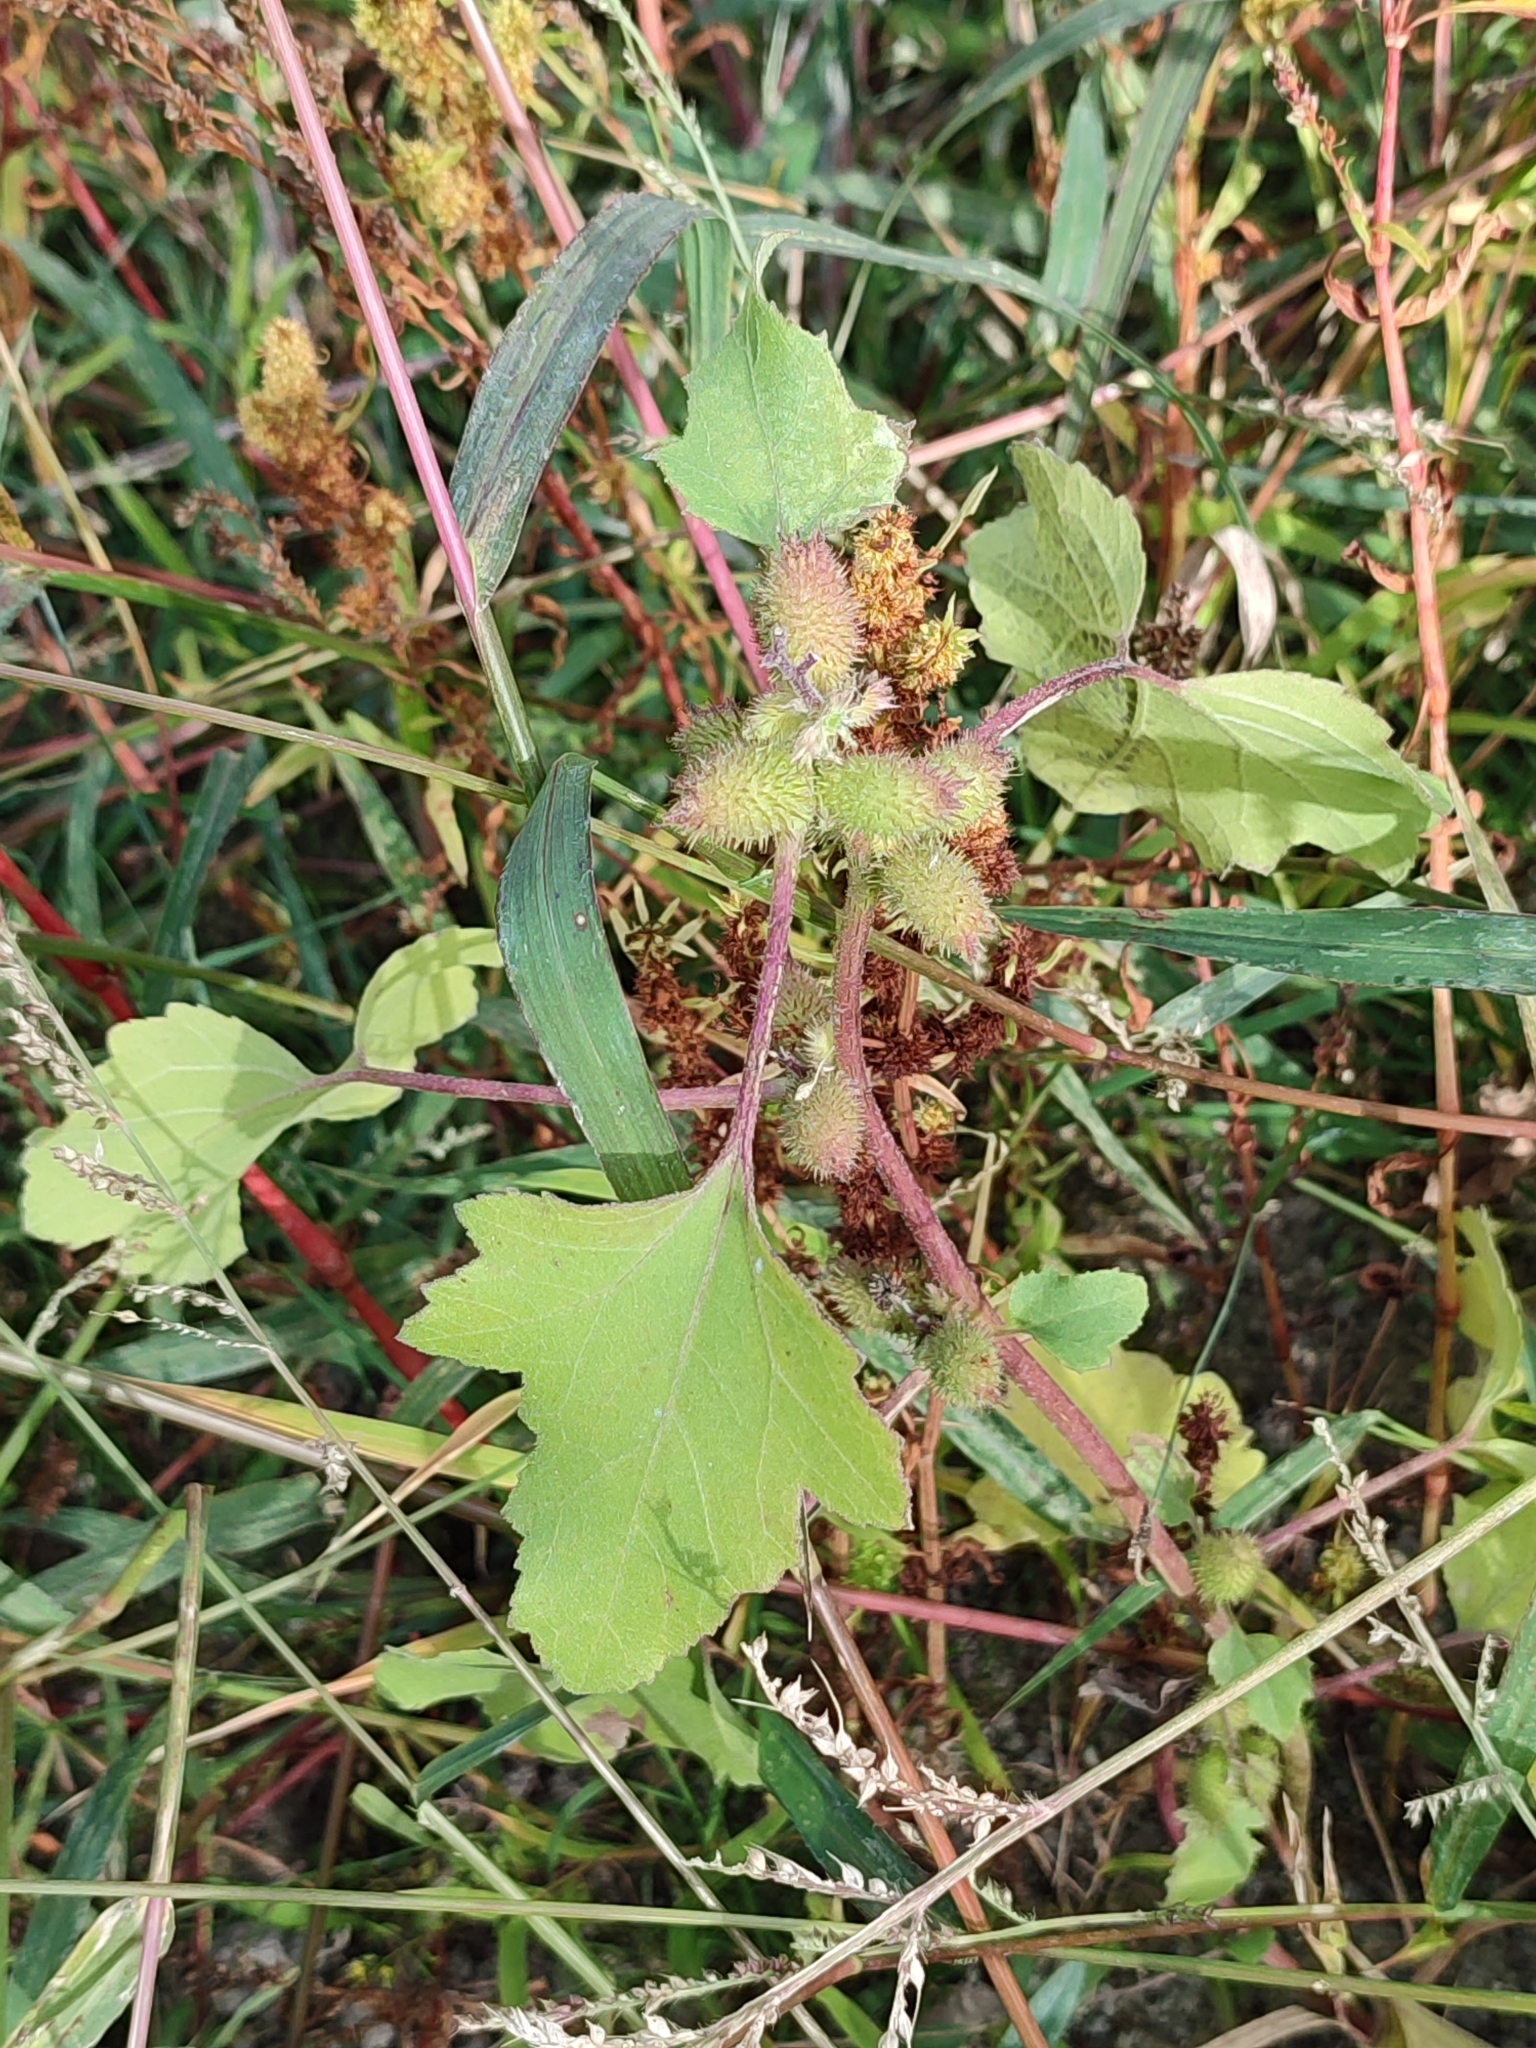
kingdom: Plantae
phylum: Tracheophyta
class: Magnoliopsida
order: Asterales
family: Asteraceae
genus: Xanthium
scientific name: Xanthium orientale
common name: Californian burr
